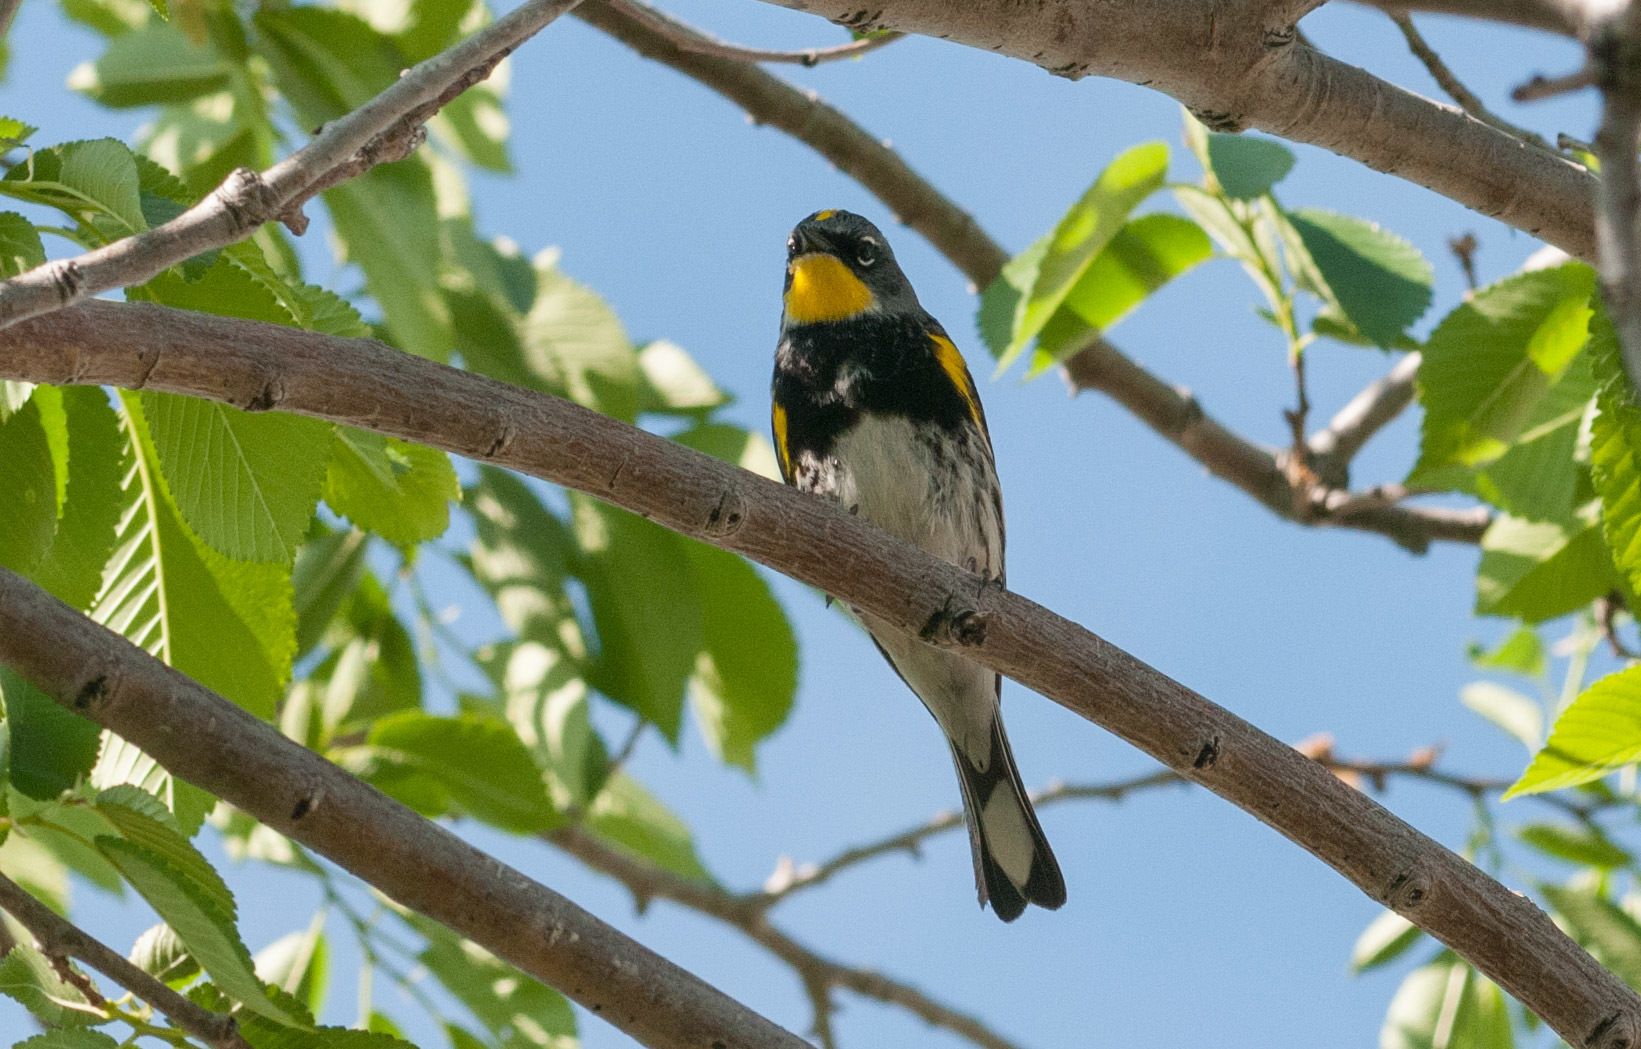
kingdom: Animalia
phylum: Chordata
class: Aves
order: Passeriformes
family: Parulidae
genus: Setophaga
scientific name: Setophaga auduboni
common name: Audubon's warbler
